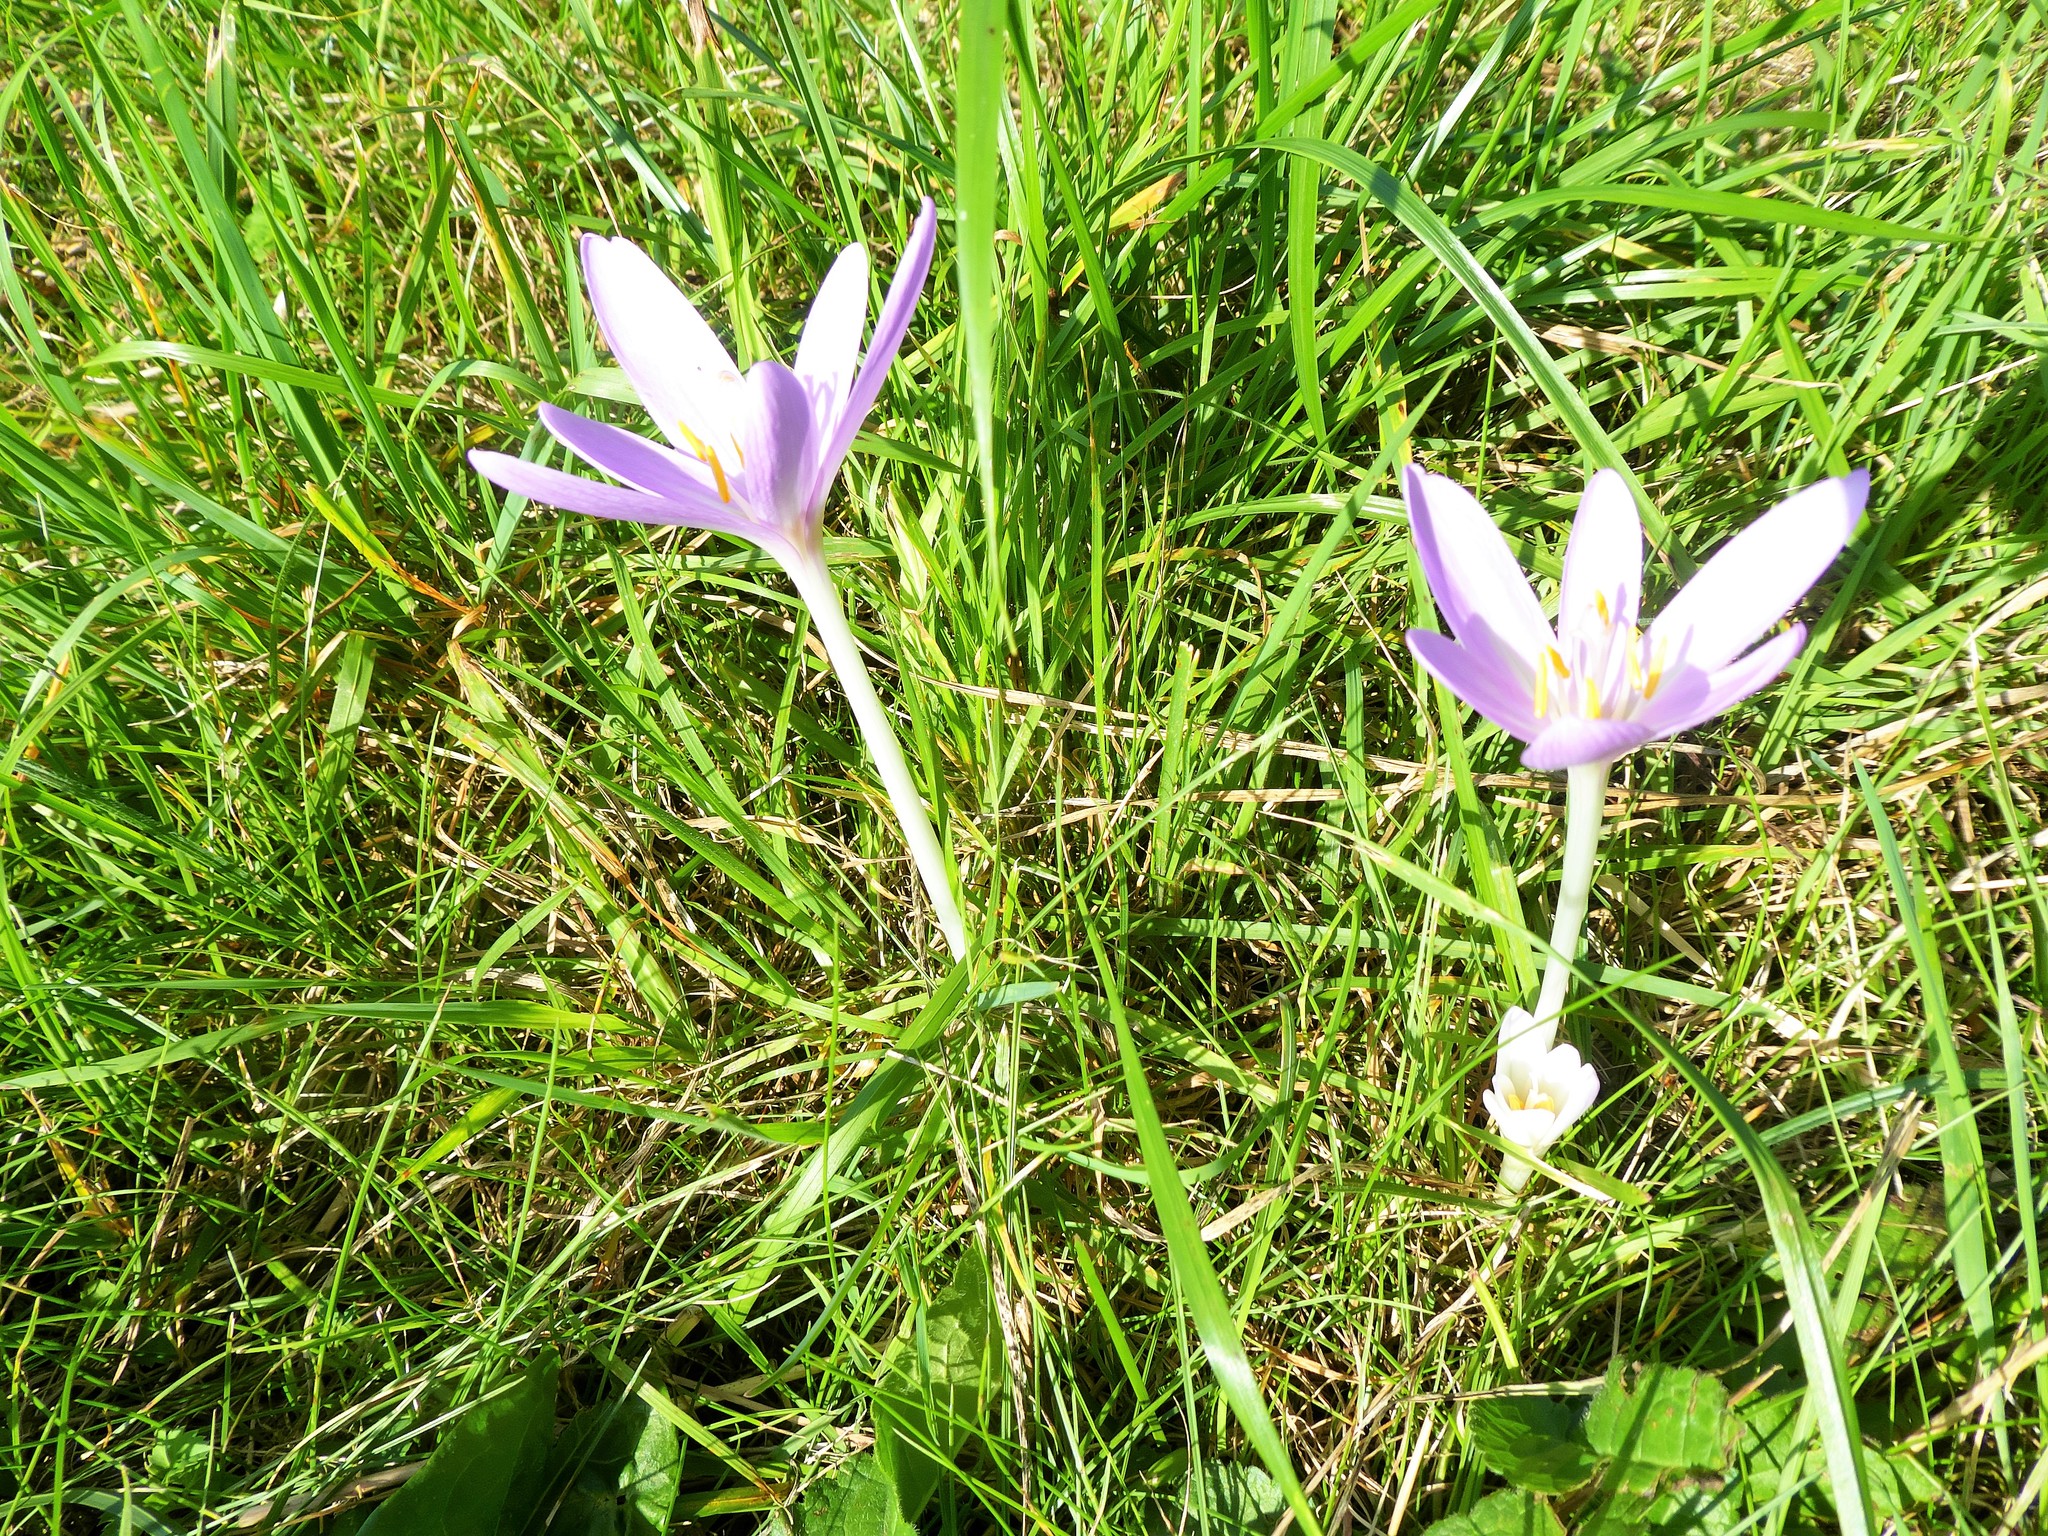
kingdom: Plantae
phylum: Tracheophyta
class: Liliopsida
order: Liliales
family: Colchicaceae
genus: Colchicum
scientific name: Colchicum autumnale
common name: Autumn crocus
